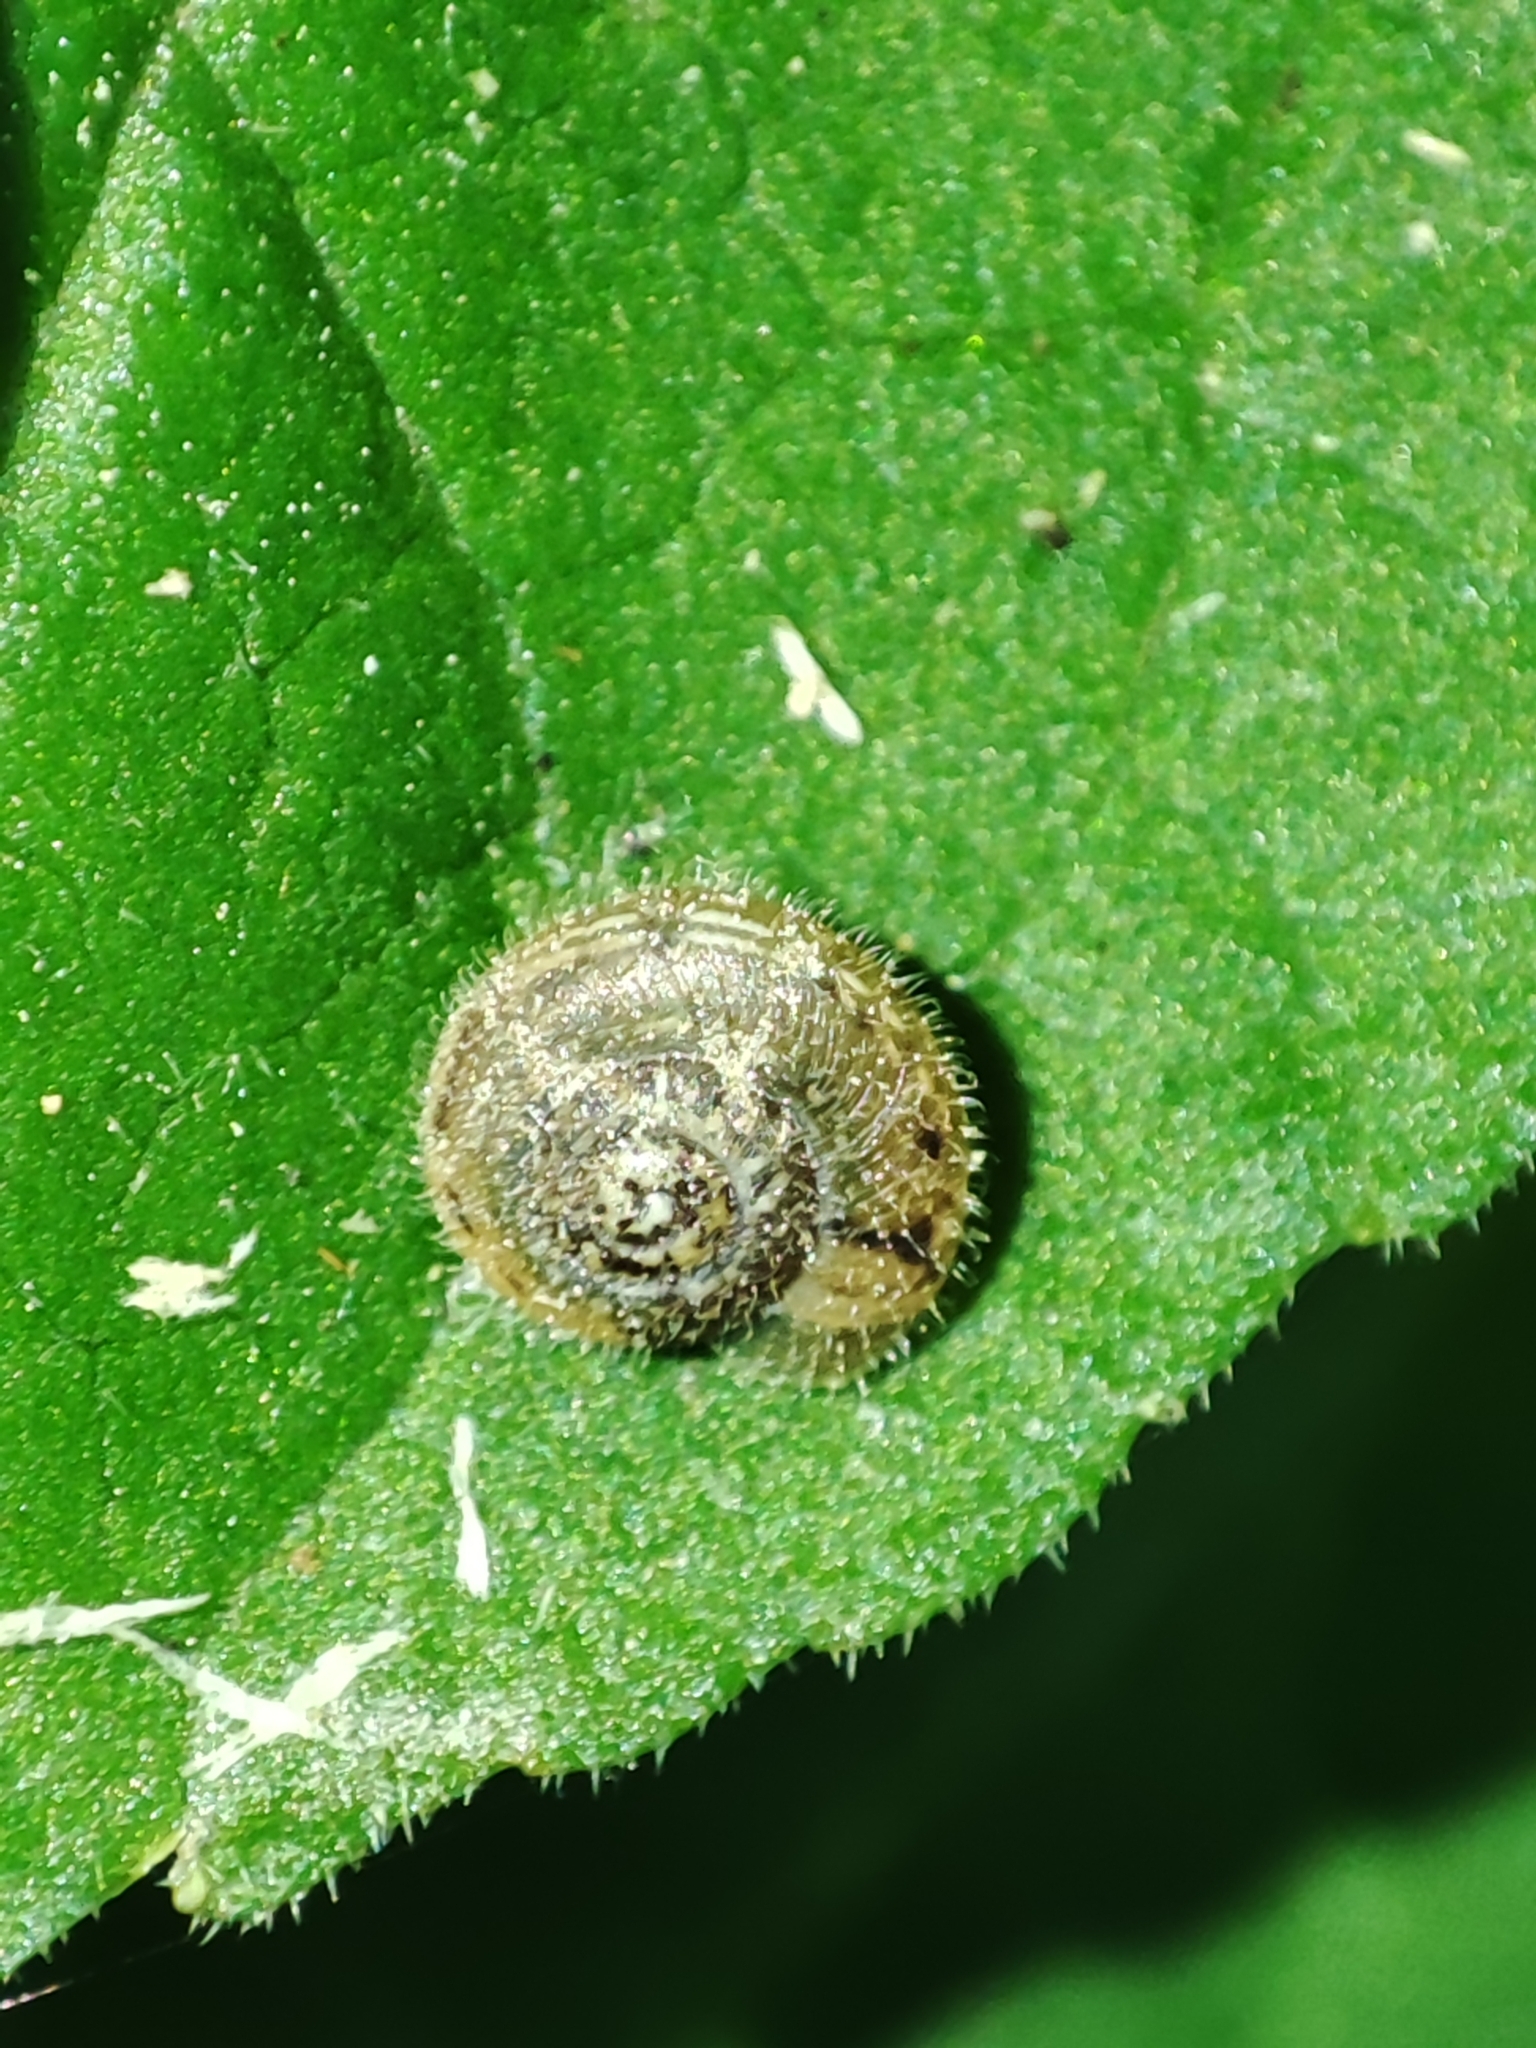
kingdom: Animalia
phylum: Mollusca
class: Gastropoda
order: Stylommatophora
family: Hygromiidae
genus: Euomphalia
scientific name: Euomphalia strigella
